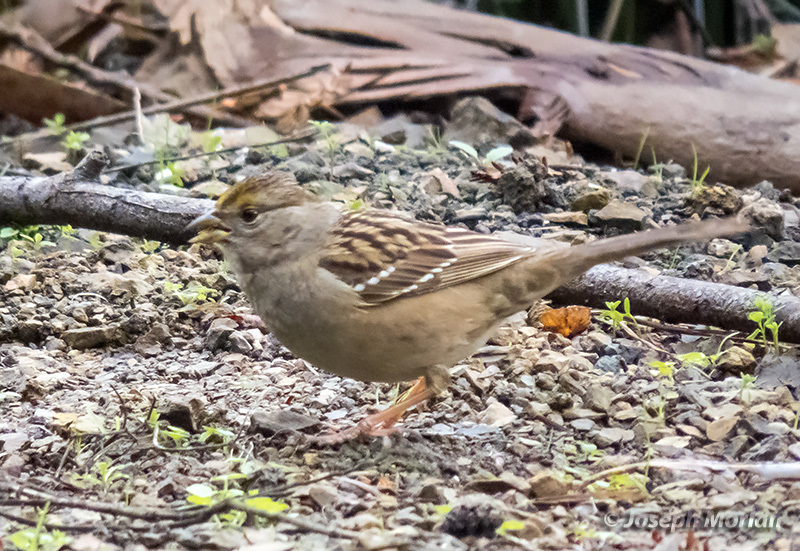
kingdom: Animalia
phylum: Chordata
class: Aves
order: Passeriformes
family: Passerellidae
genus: Zonotrichia
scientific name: Zonotrichia atricapilla
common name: Golden-crowned sparrow
